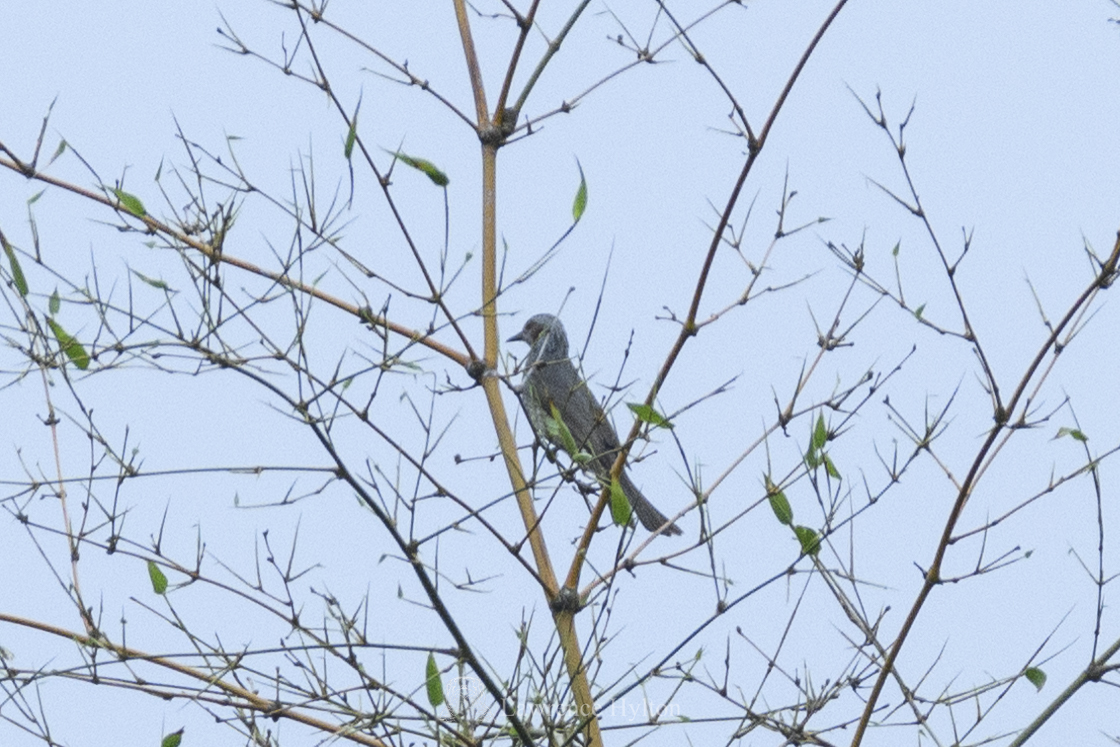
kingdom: Animalia
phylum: Chordata
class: Aves
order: Passeriformes
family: Pycnonotidae
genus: Hypsipetes
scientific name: Hypsipetes amaurotis
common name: Brown-eared bulbul
